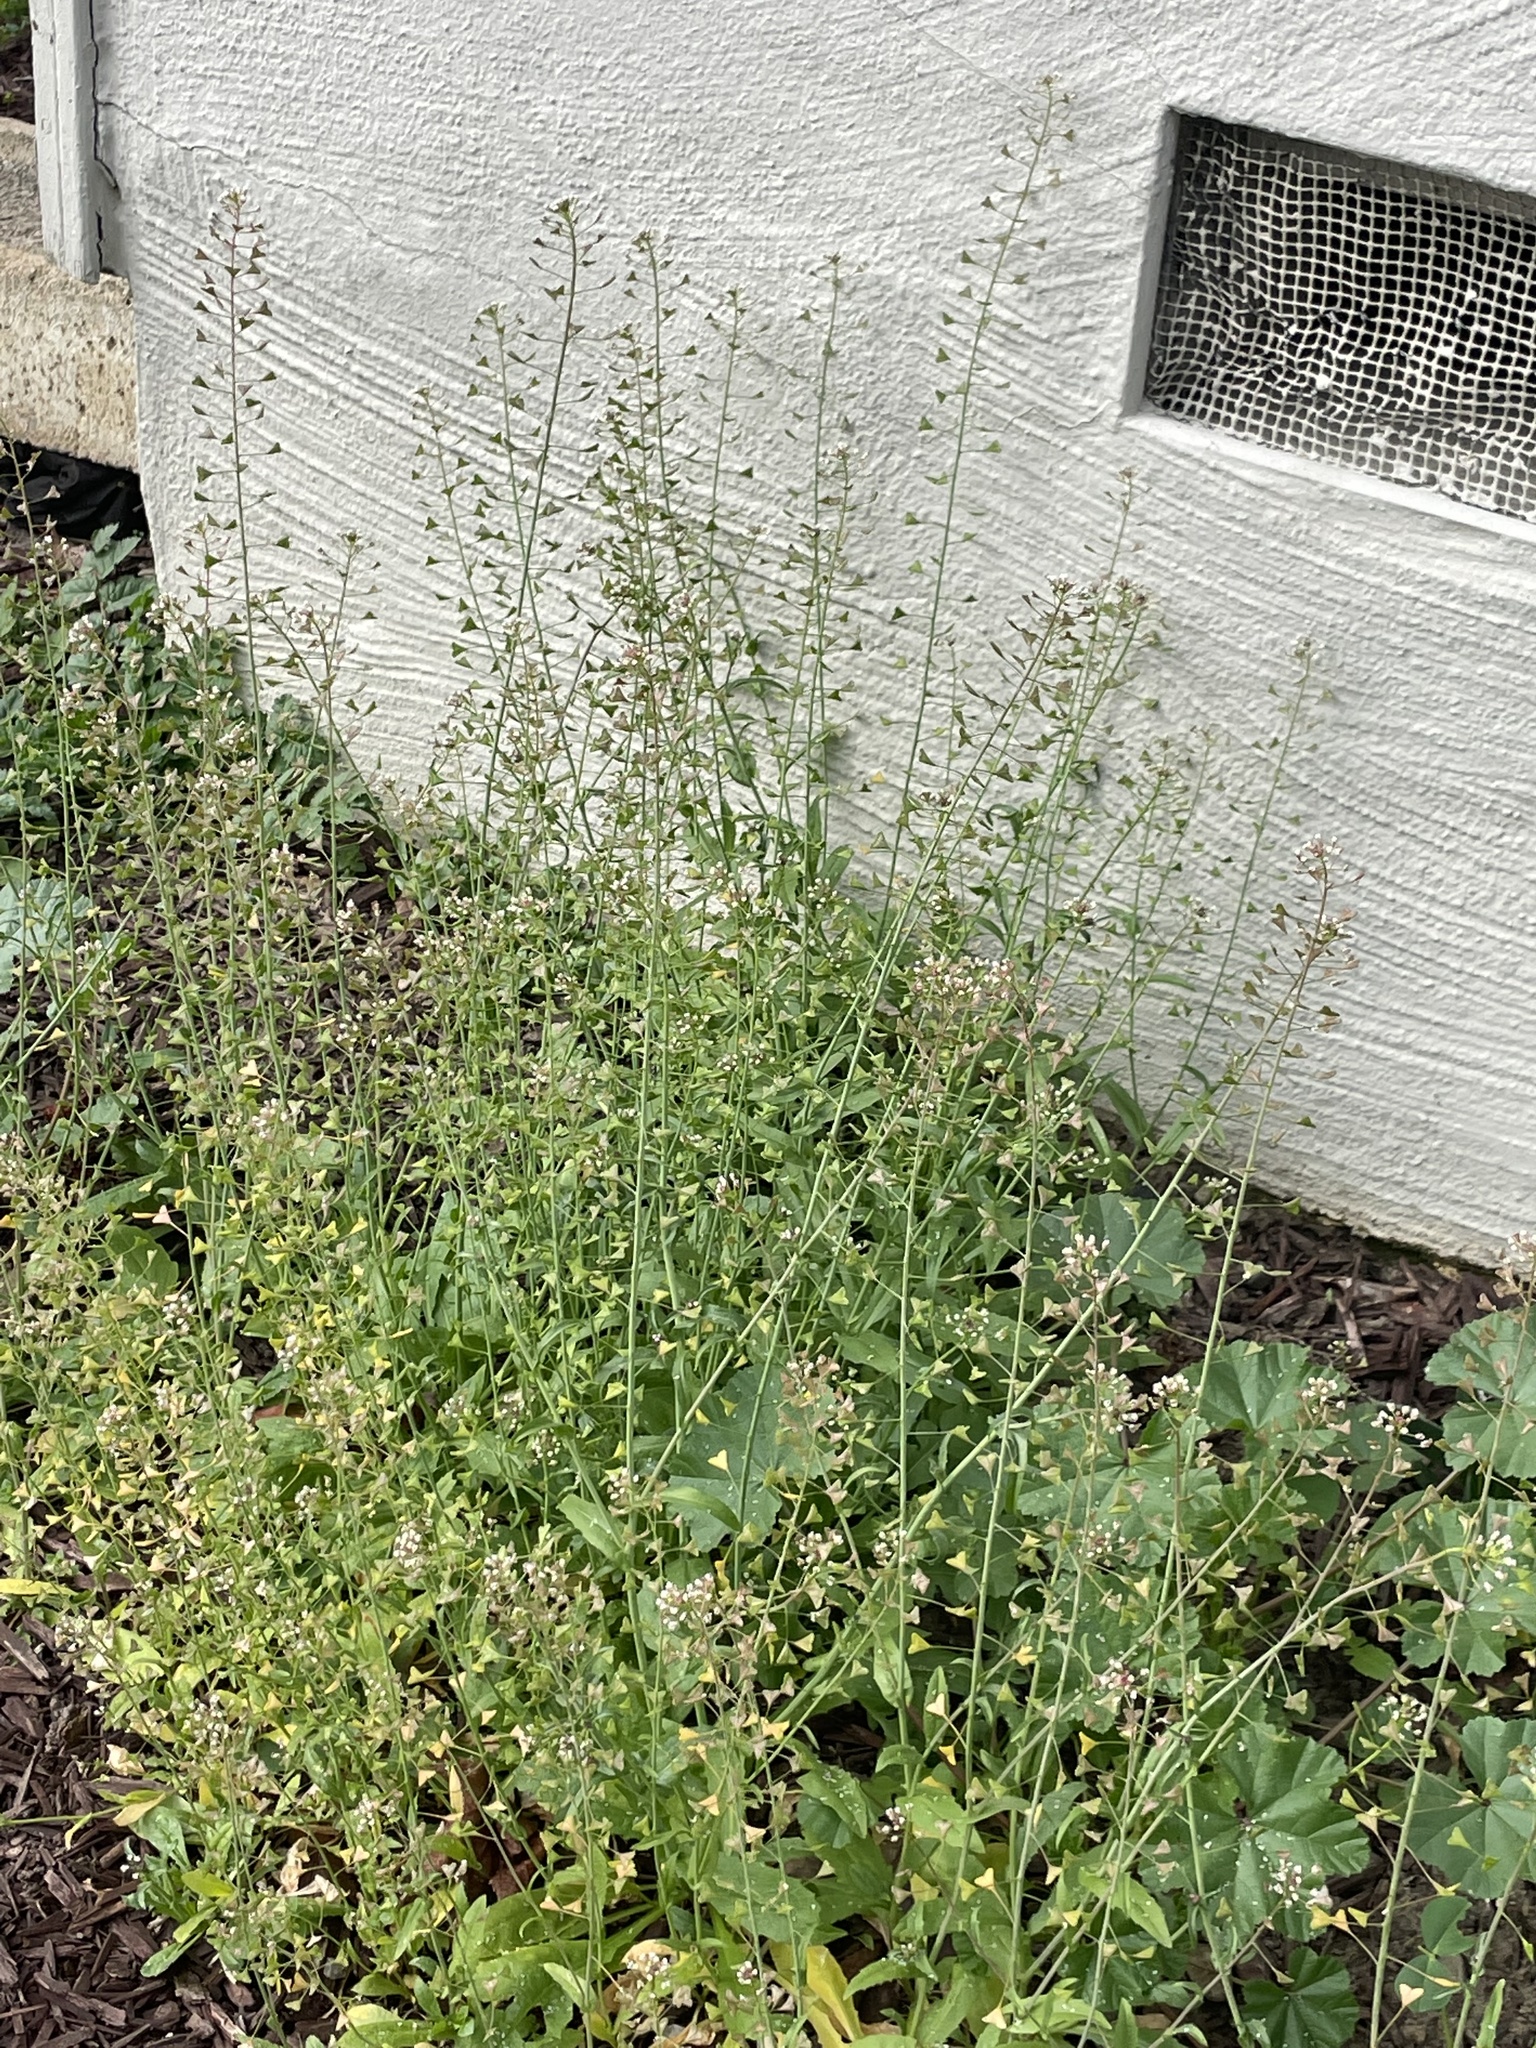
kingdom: Plantae
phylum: Tracheophyta
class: Magnoliopsida
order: Brassicales
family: Brassicaceae
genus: Capsella
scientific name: Capsella bursa-pastoris
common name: Shepherd's purse
